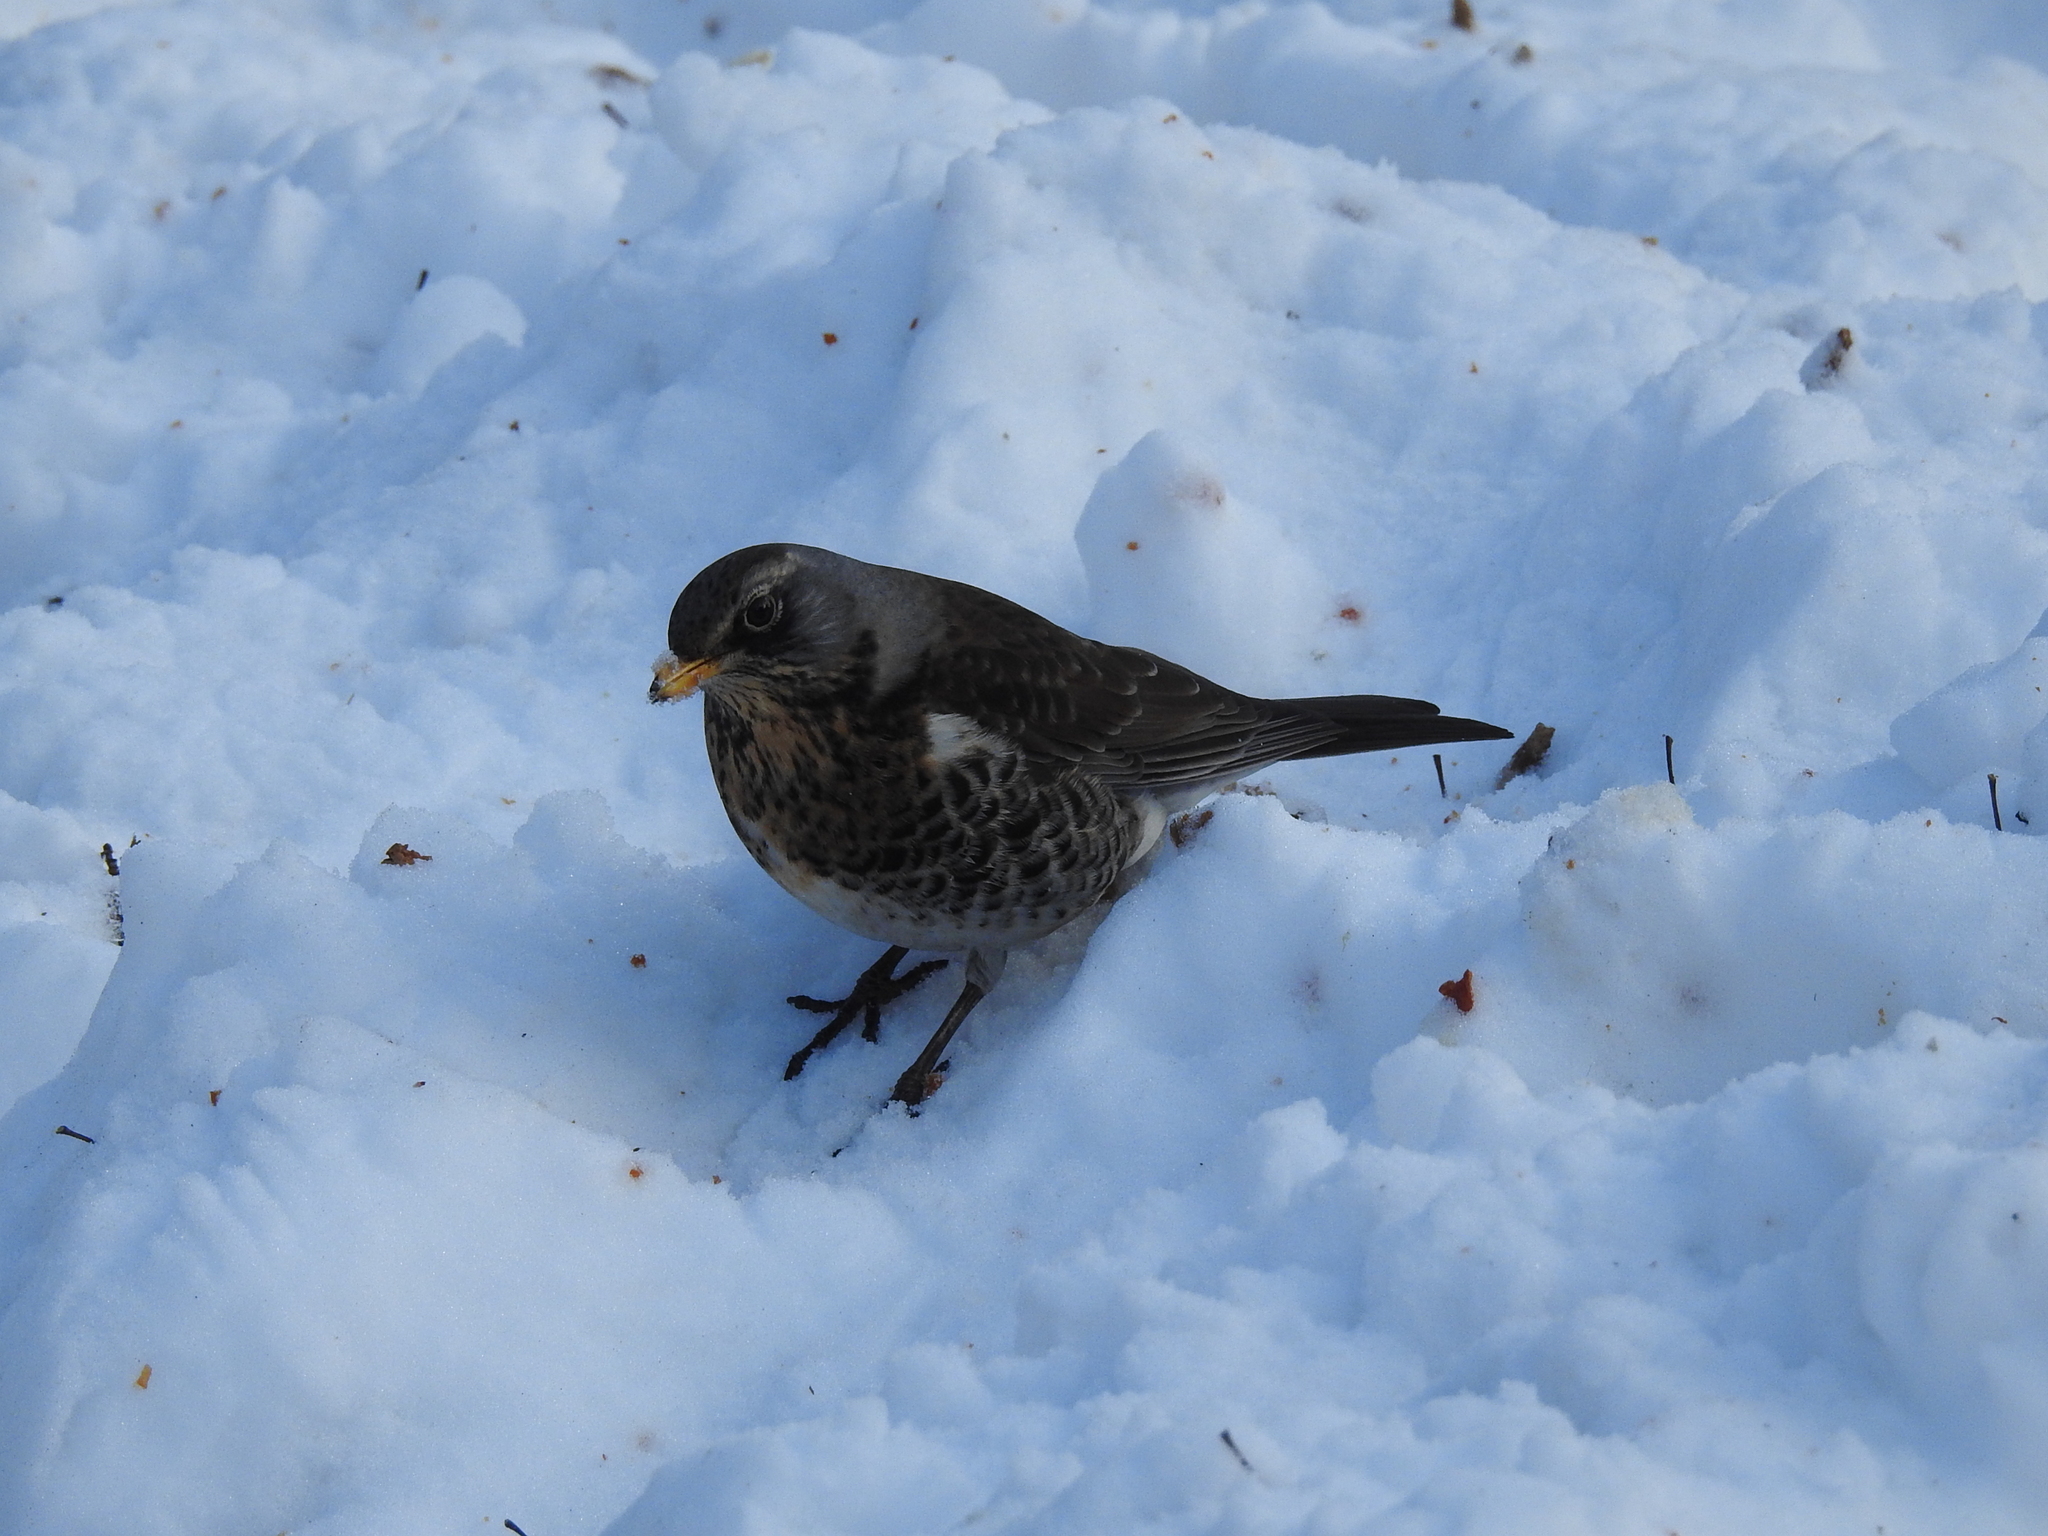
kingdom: Animalia
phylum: Chordata
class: Aves
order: Passeriformes
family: Turdidae
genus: Turdus
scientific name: Turdus pilaris
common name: Fieldfare
